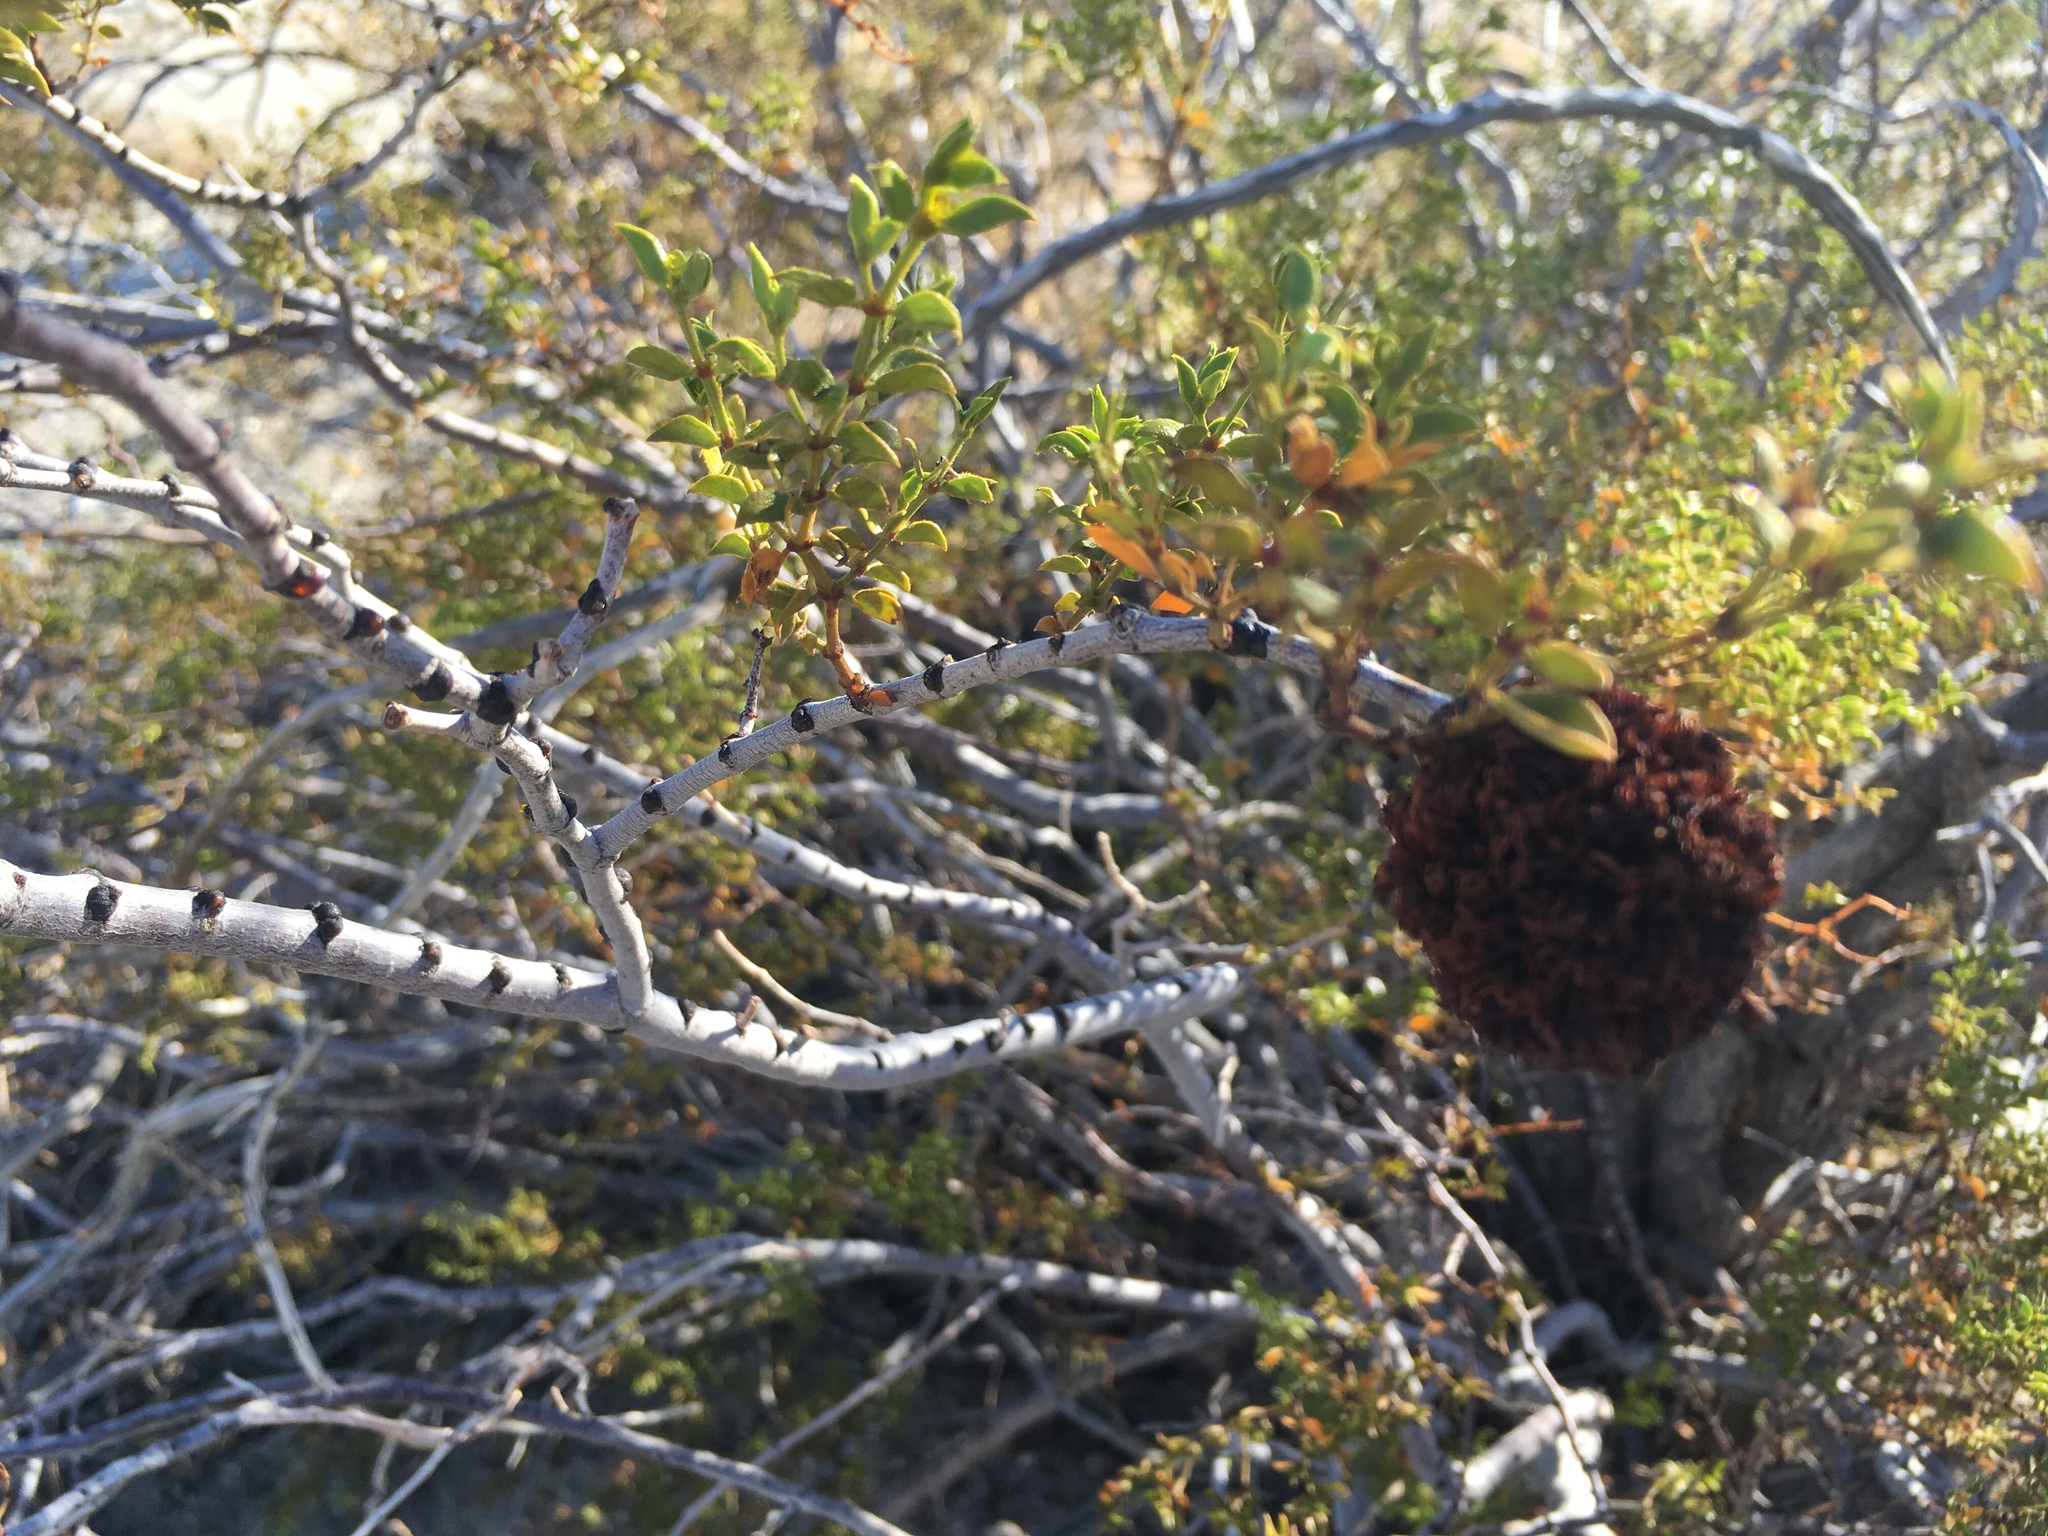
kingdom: Plantae
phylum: Tracheophyta
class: Magnoliopsida
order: Zygophyllales
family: Zygophyllaceae
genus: Larrea
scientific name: Larrea tridentata
